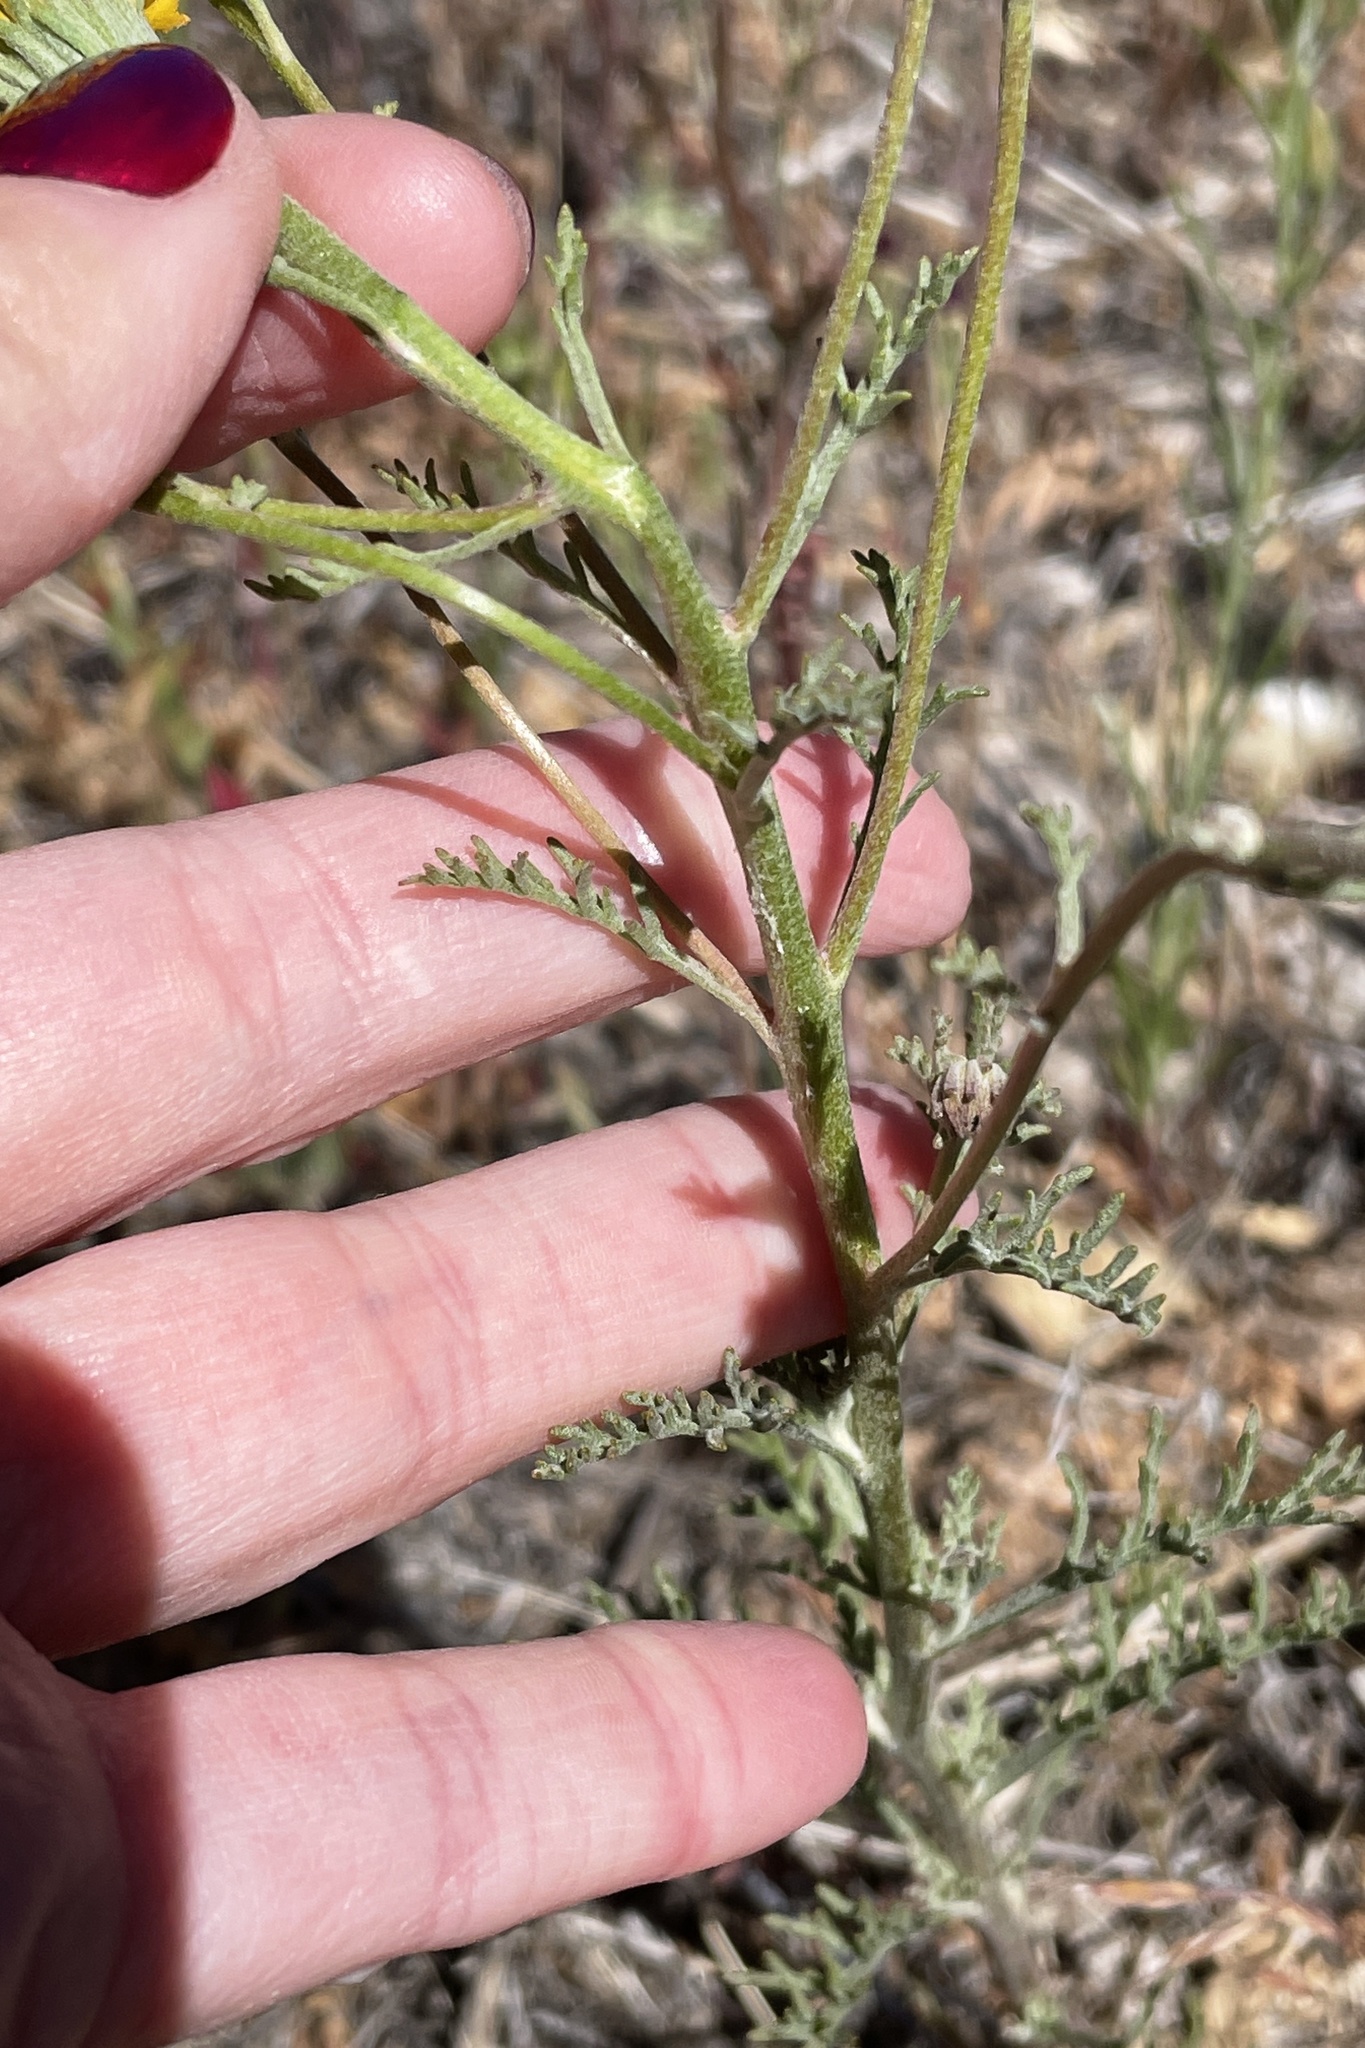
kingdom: Plantae
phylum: Tracheophyta
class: Magnoliopsida
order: Asterales
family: Asteraceae
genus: Chaenactis
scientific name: Chaenactis glabriuscula
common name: Yellow pincushion
